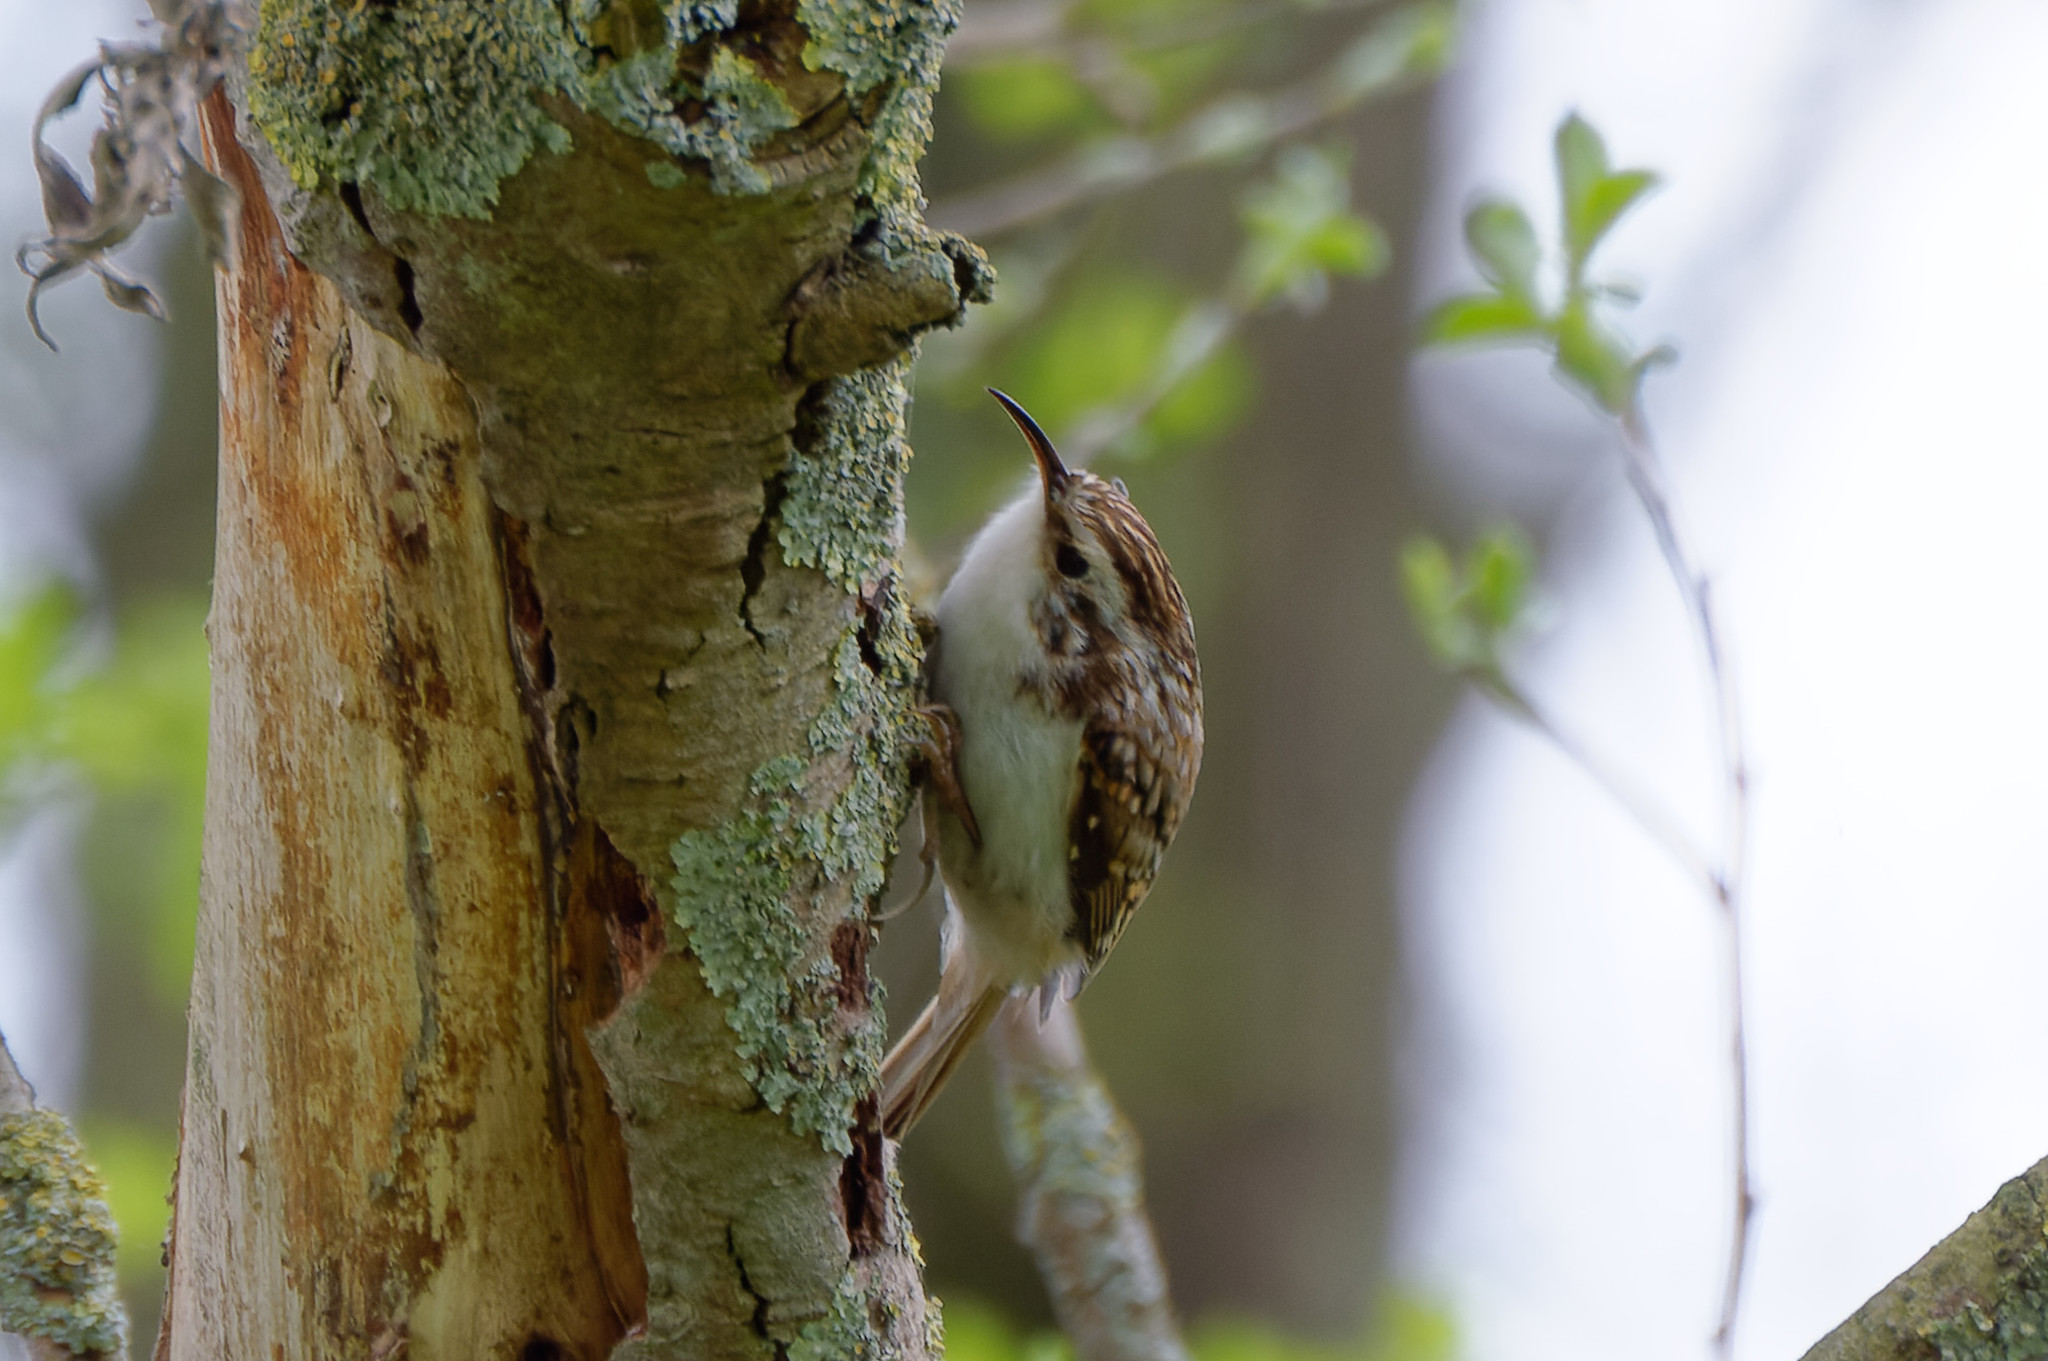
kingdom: Animalia
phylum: Chordata
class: Aves
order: Passeriformes
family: Certhiidae
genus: Certhia
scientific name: Certhia familiaris
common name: Eurasian treecreeper
